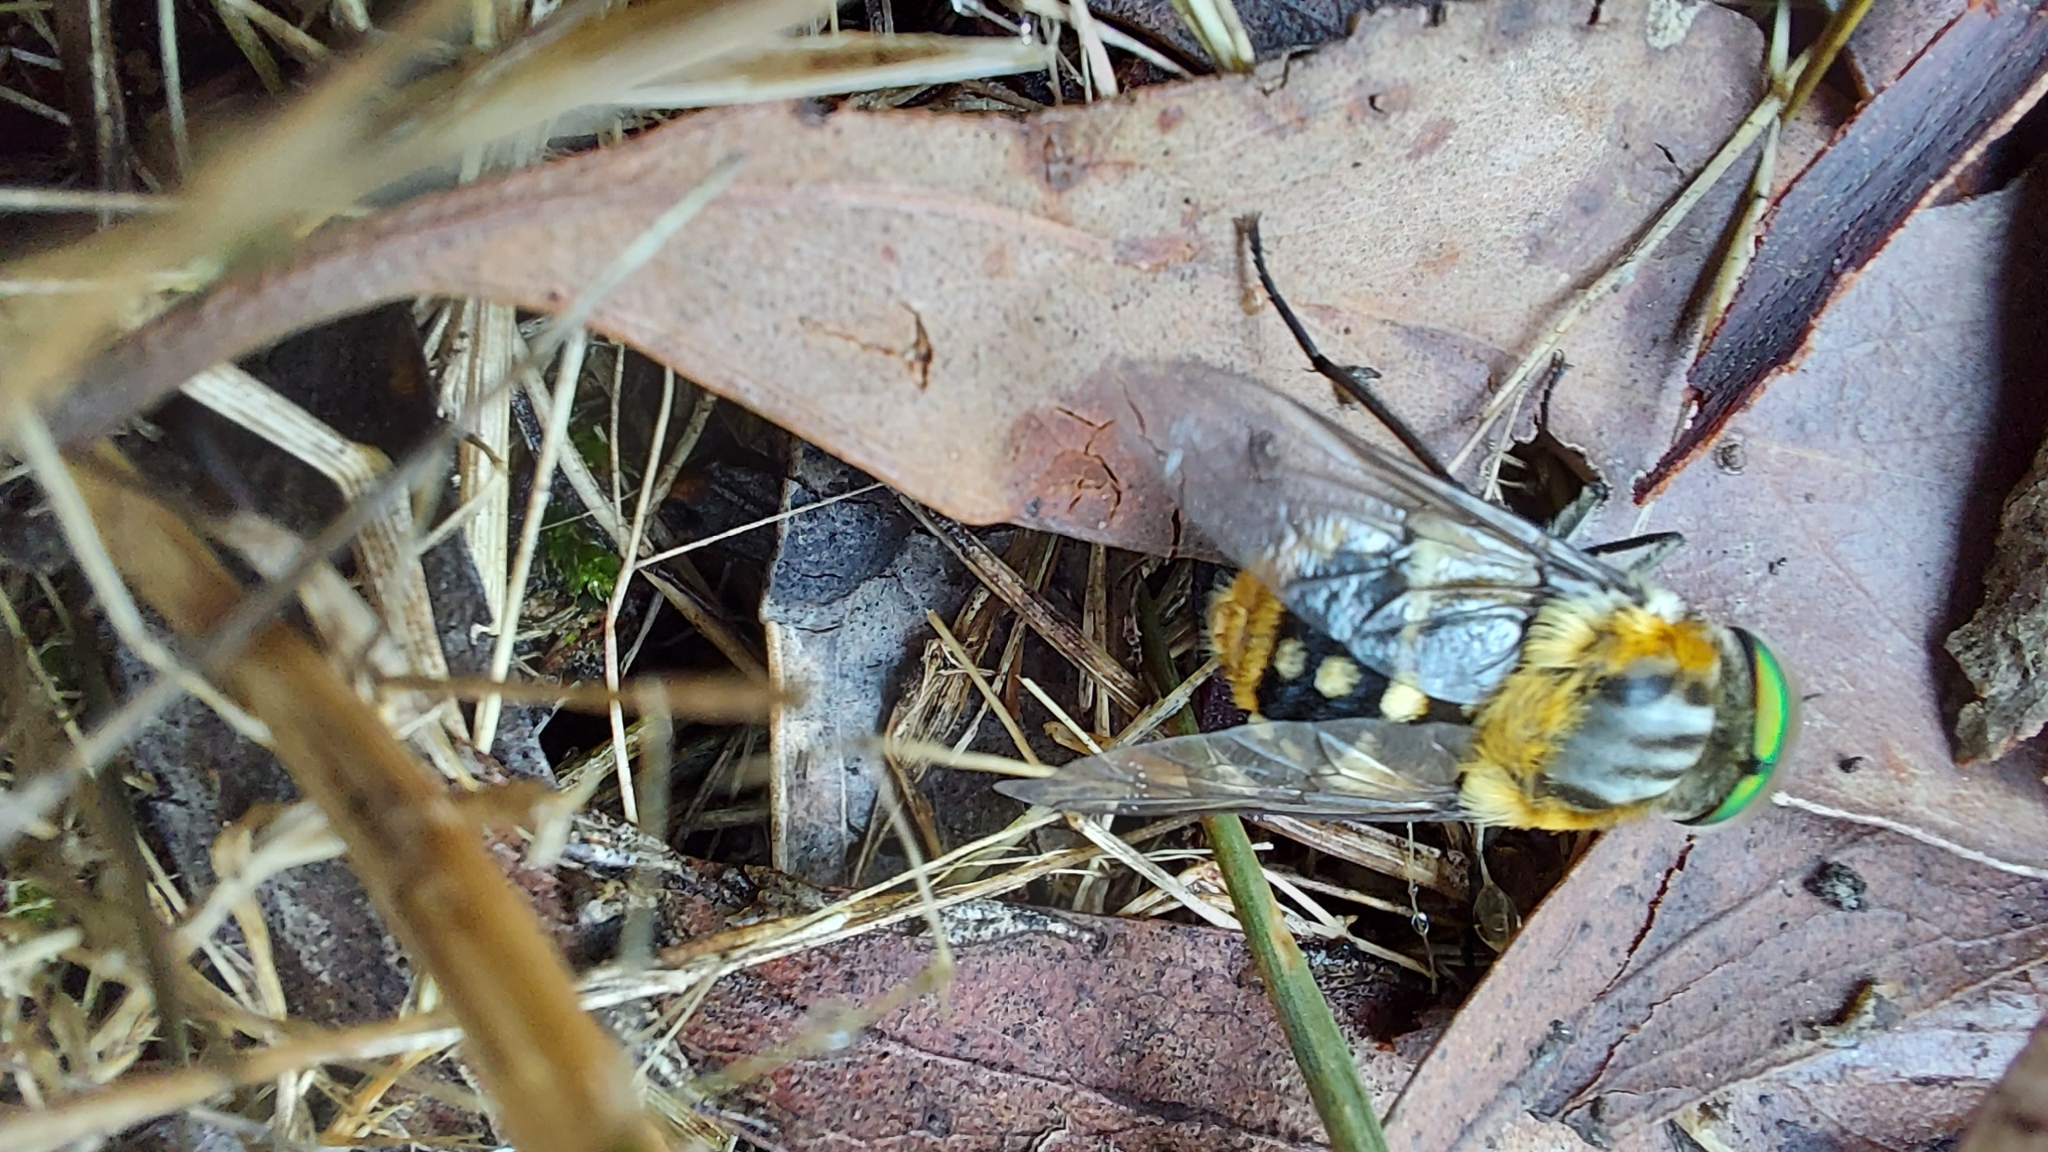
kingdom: Animalia
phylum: Arthropoda
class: Insecta
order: Diptera
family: Tabanidae
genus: Scaptia
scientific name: Scaptia auriflua
